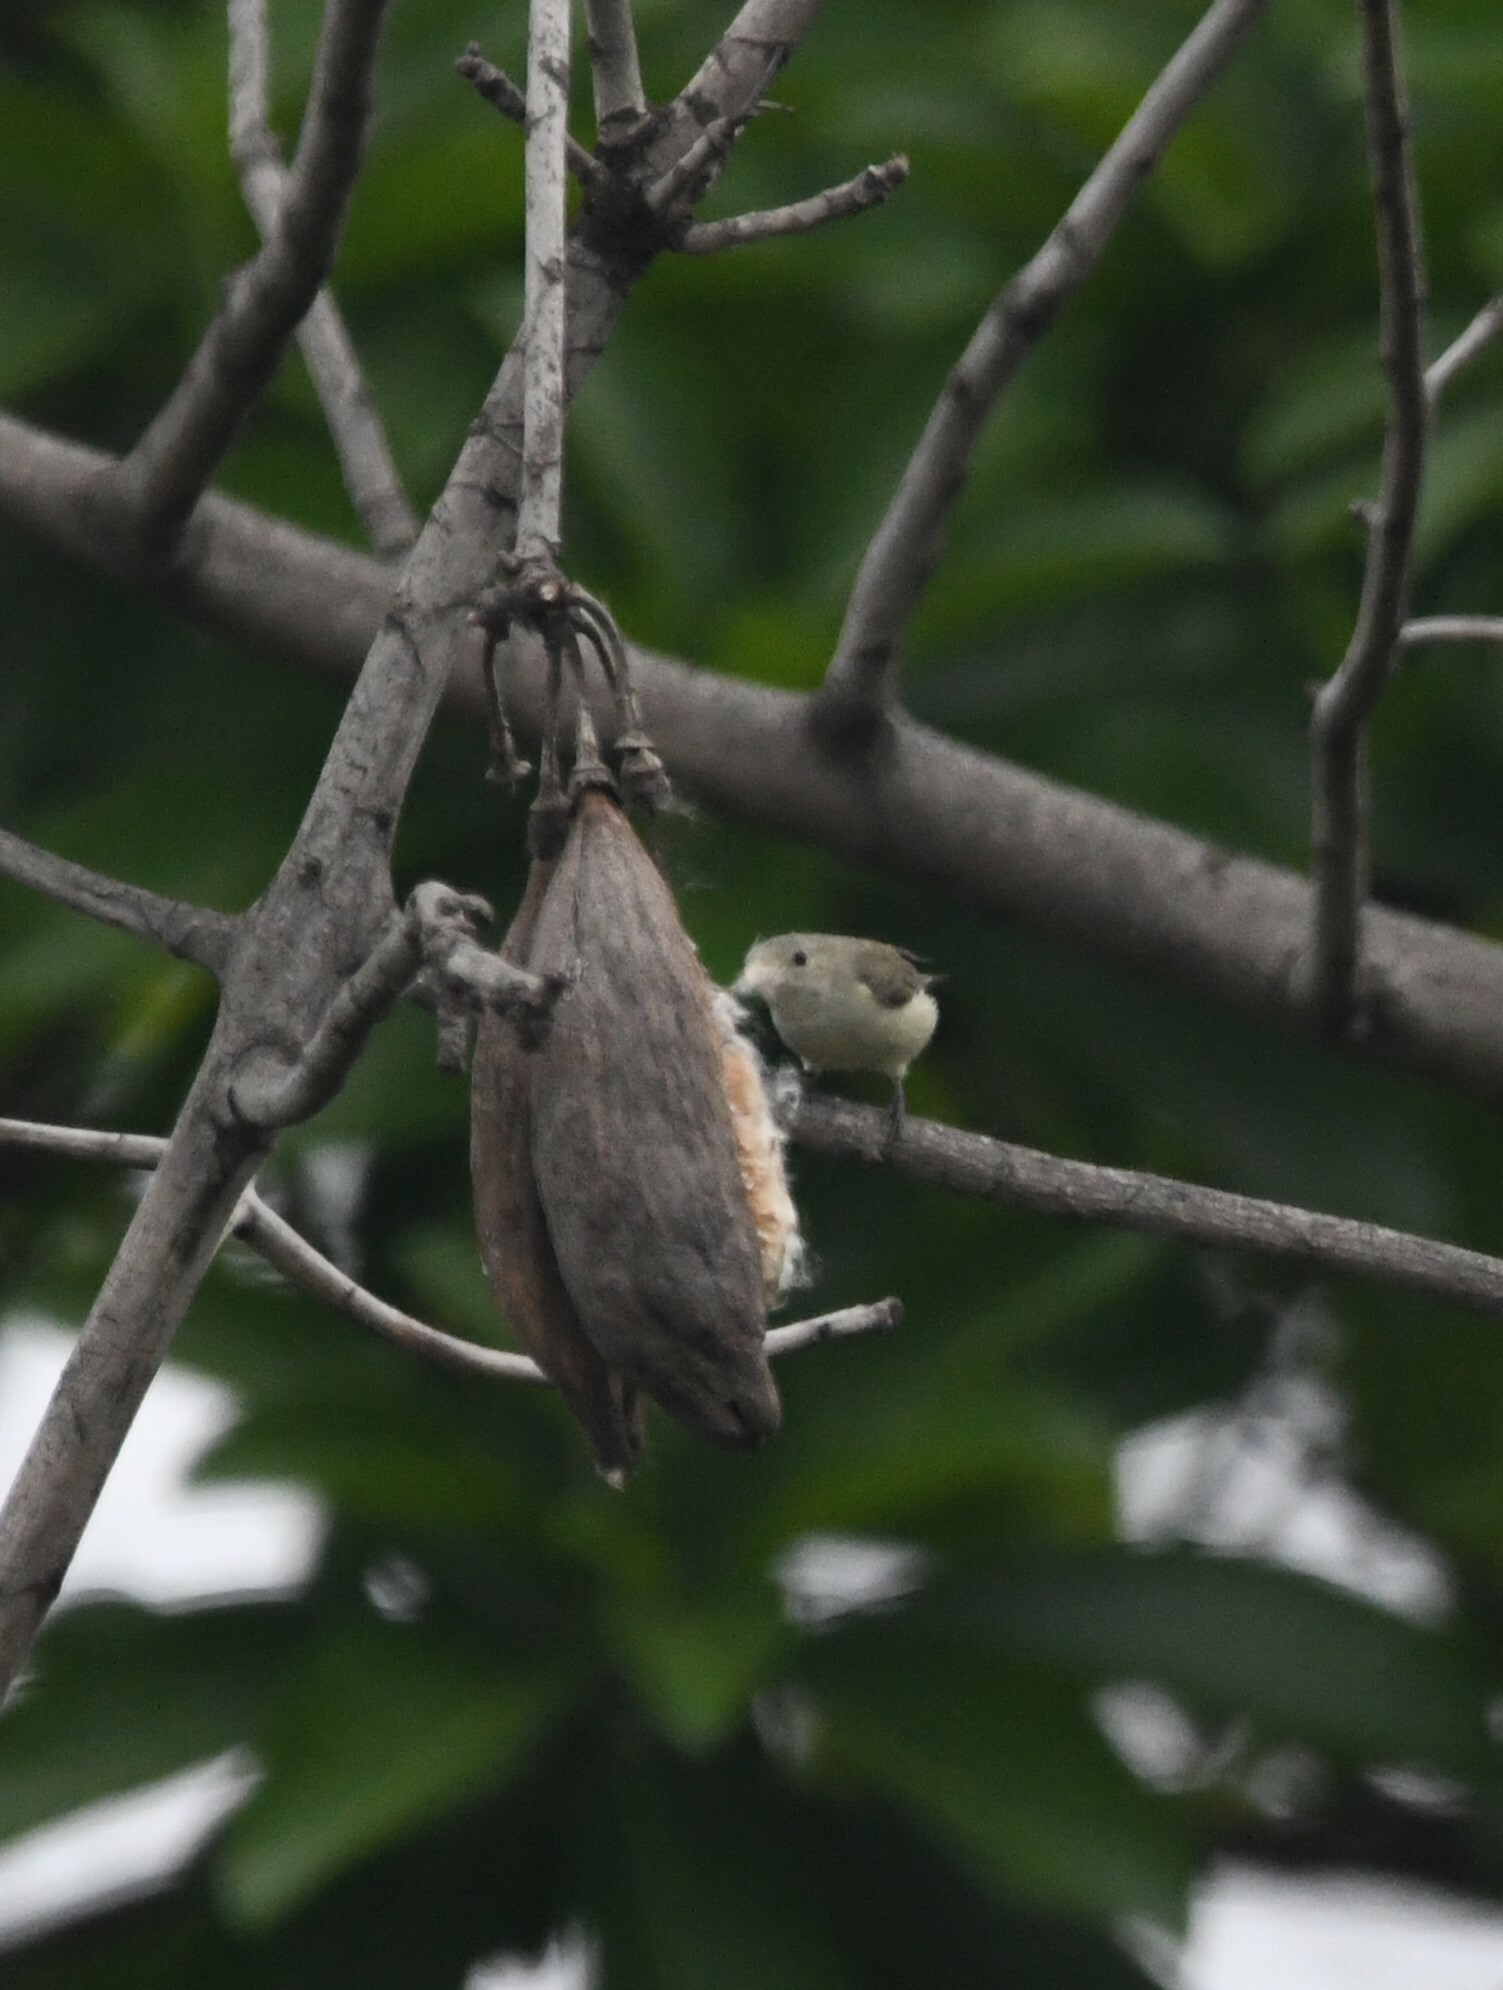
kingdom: Animalia
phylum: Chordata
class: Aves
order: Passeriformes
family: Dicaeidae
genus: Dicaeum
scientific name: Dicaeum erythrorhynchos
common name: Pale-billed flowerpecker
